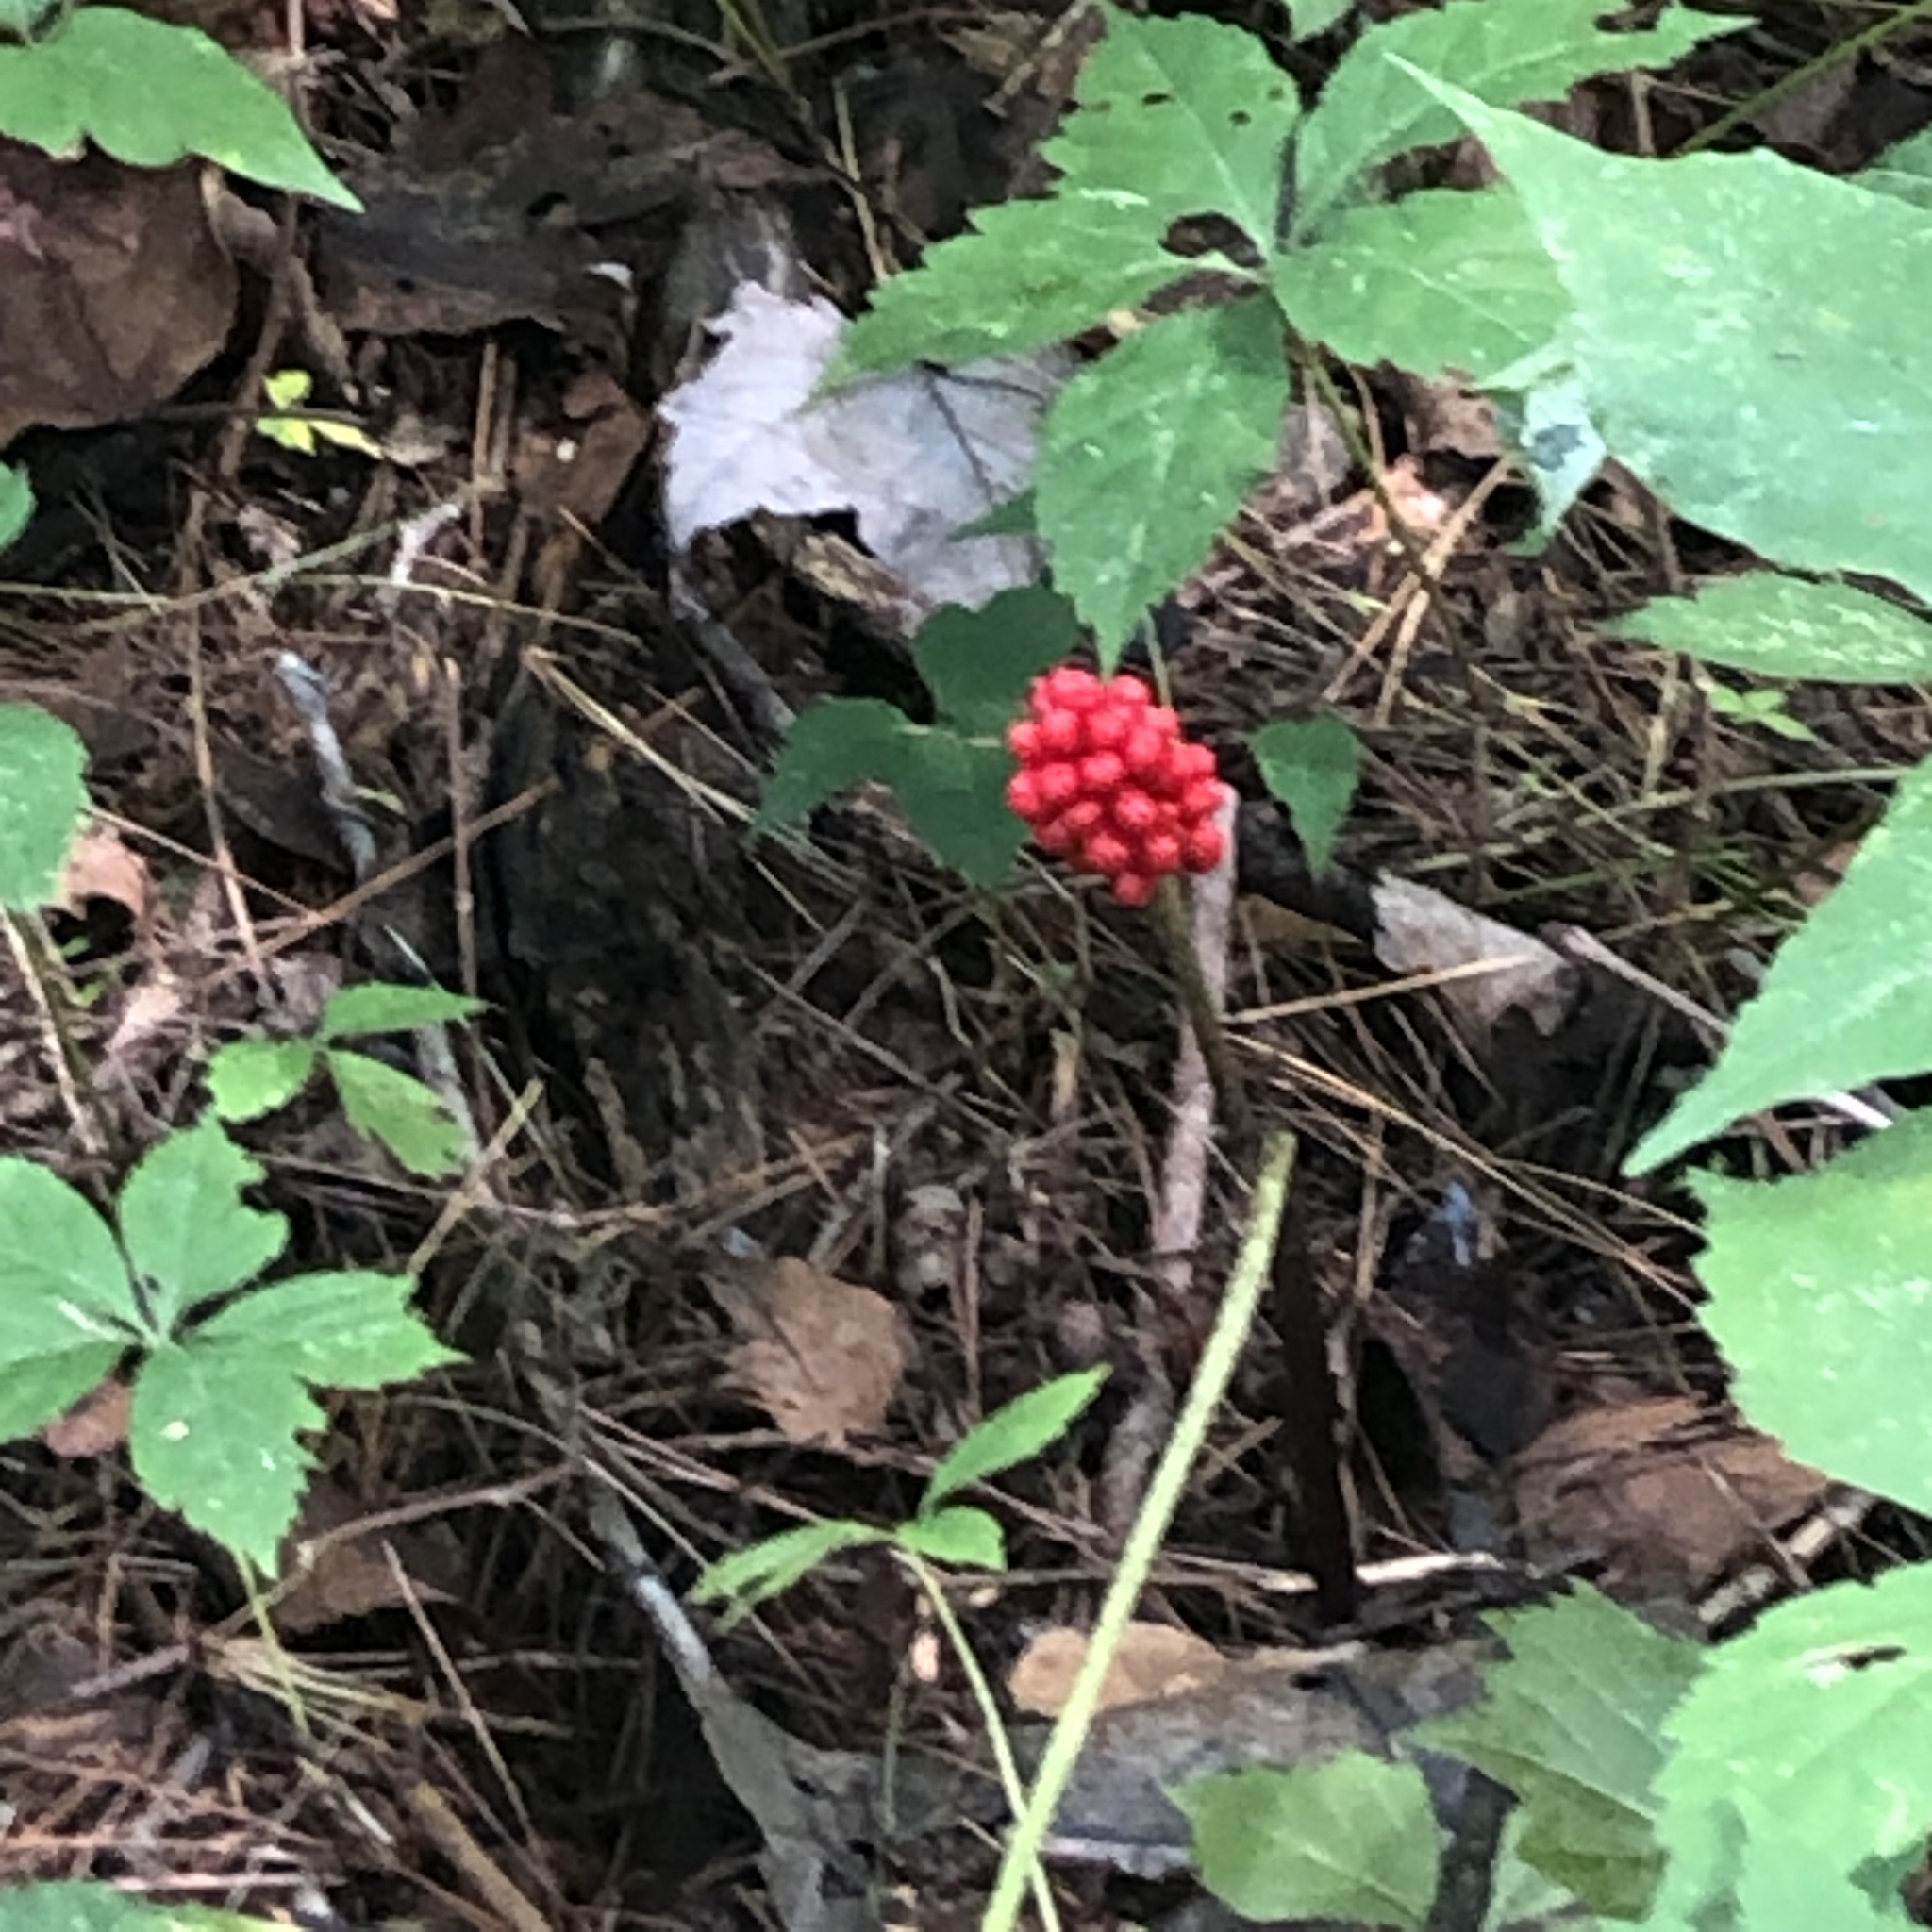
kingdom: Plantae
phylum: Tracheophyta
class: Liliopsida
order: Alismatales
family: Araceae
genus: Arisaema
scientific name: Arisaema triphyllum
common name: Jack-in-the-pulpit
